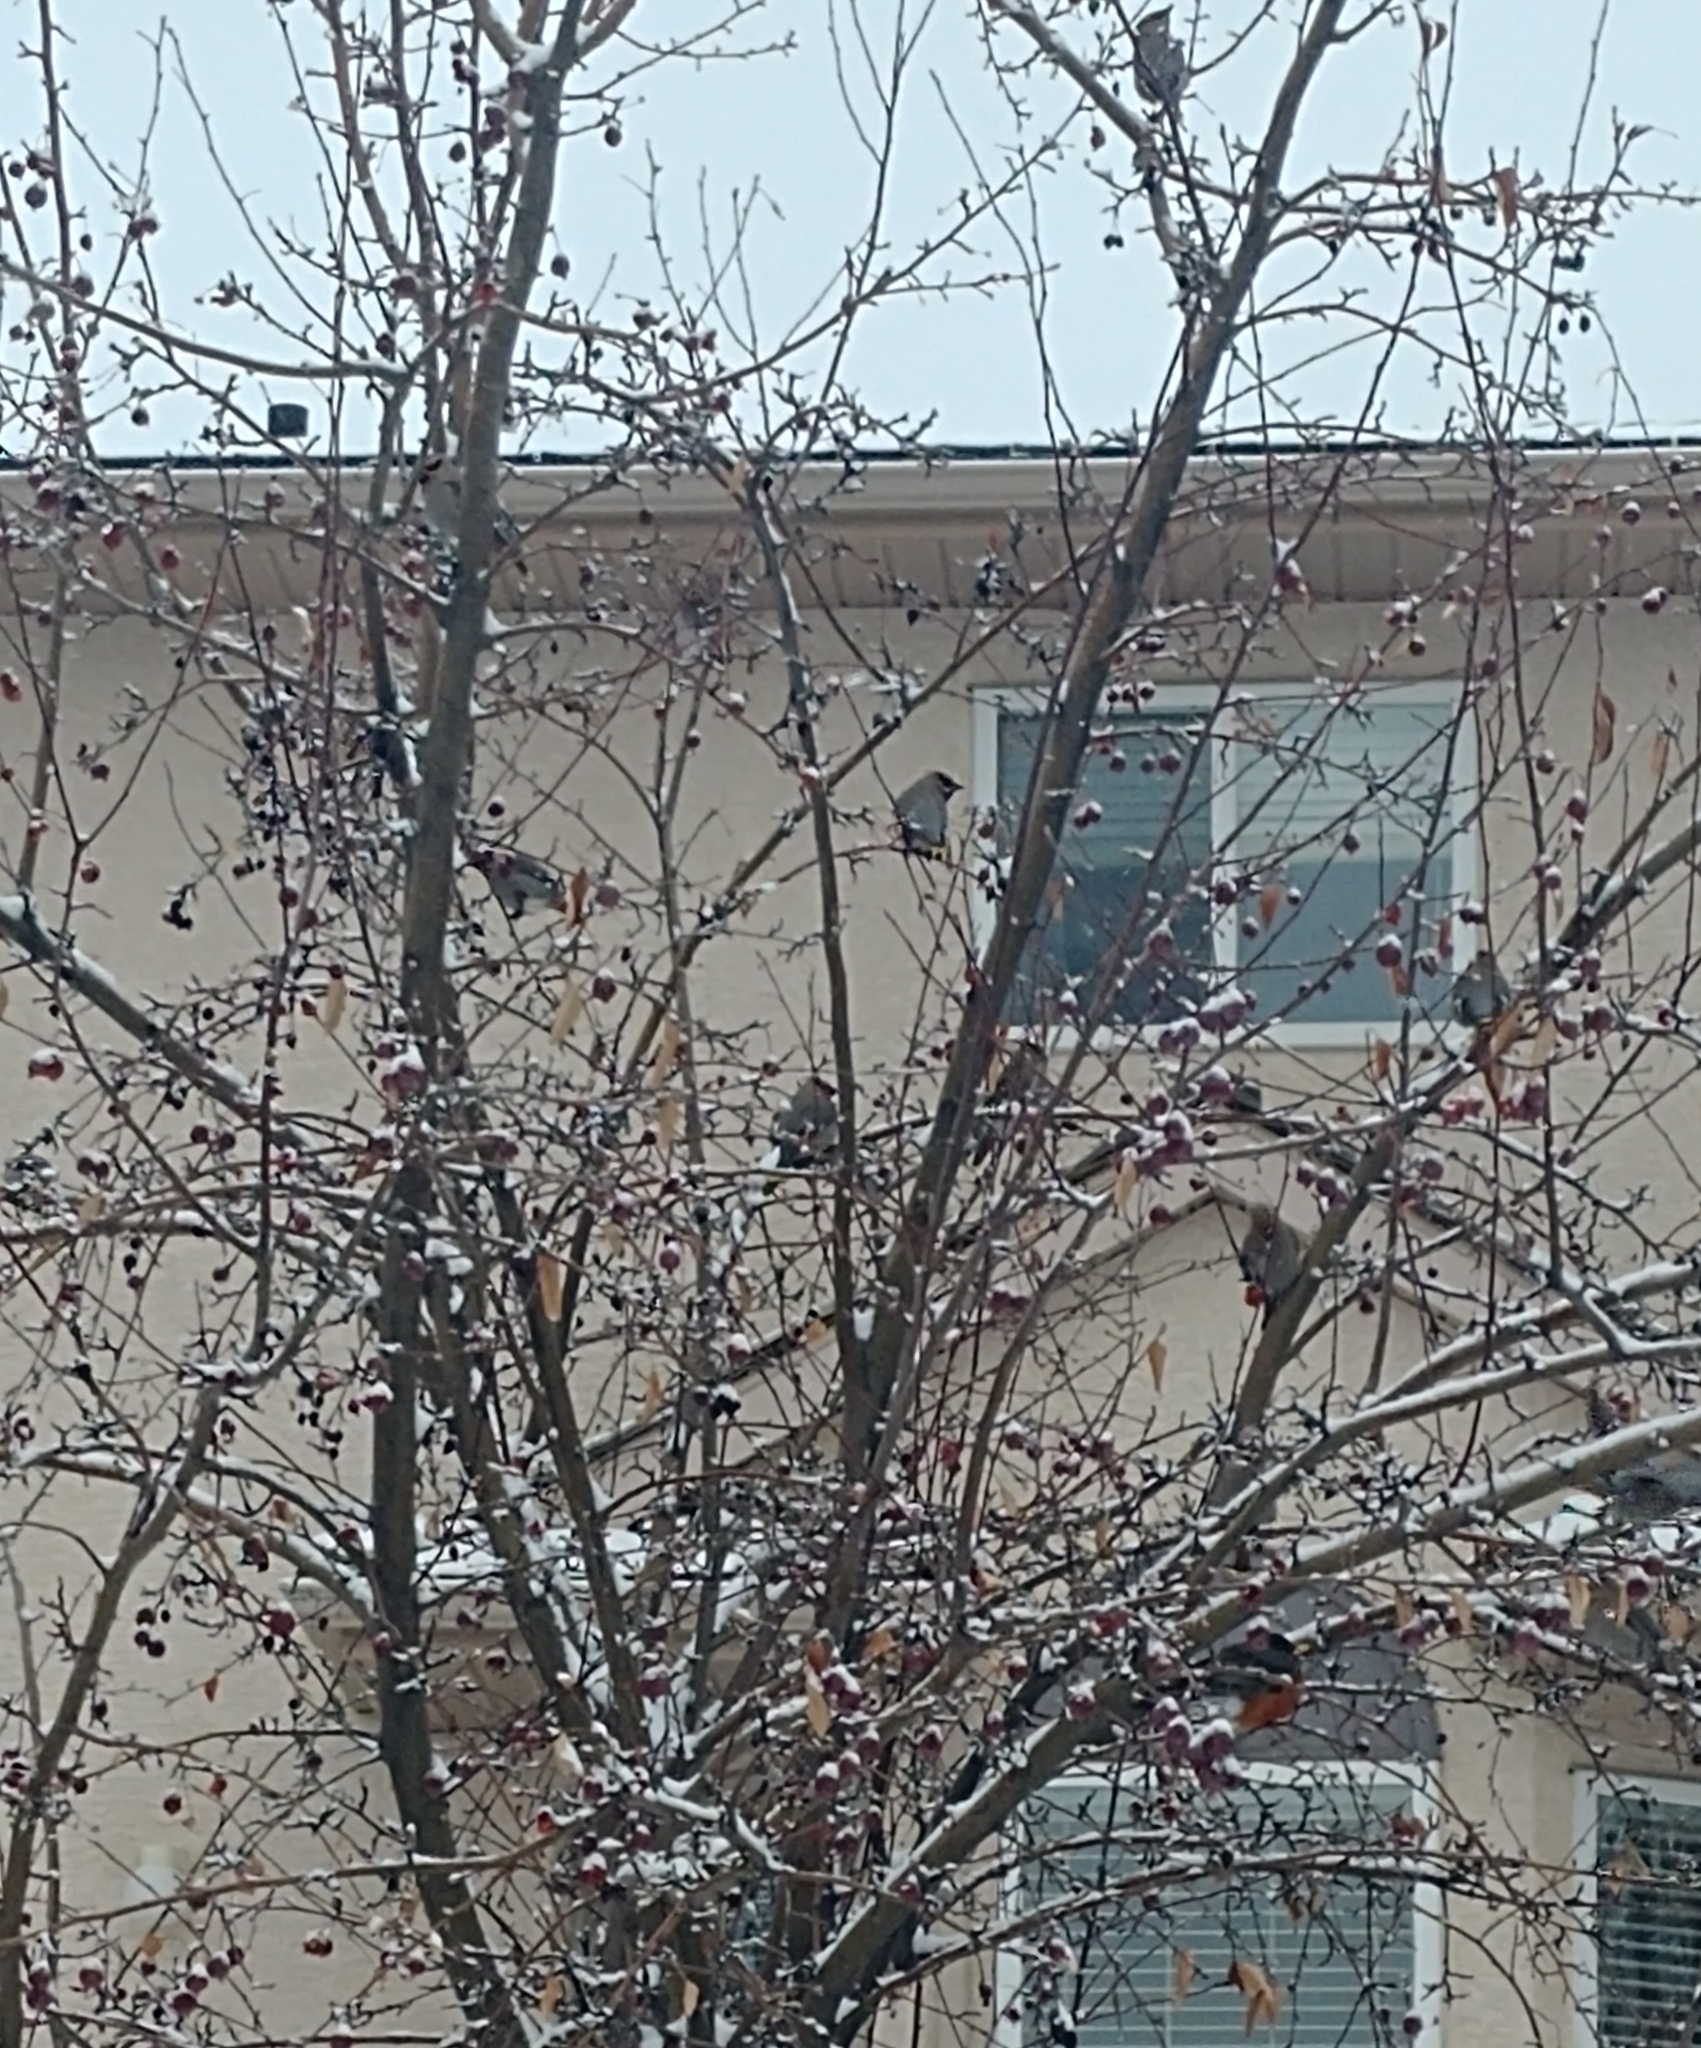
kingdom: Animalia
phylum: Chordata
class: Aves
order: Passeriformes
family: Turdidae
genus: Turdus
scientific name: Turdus migratorius
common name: American robin
